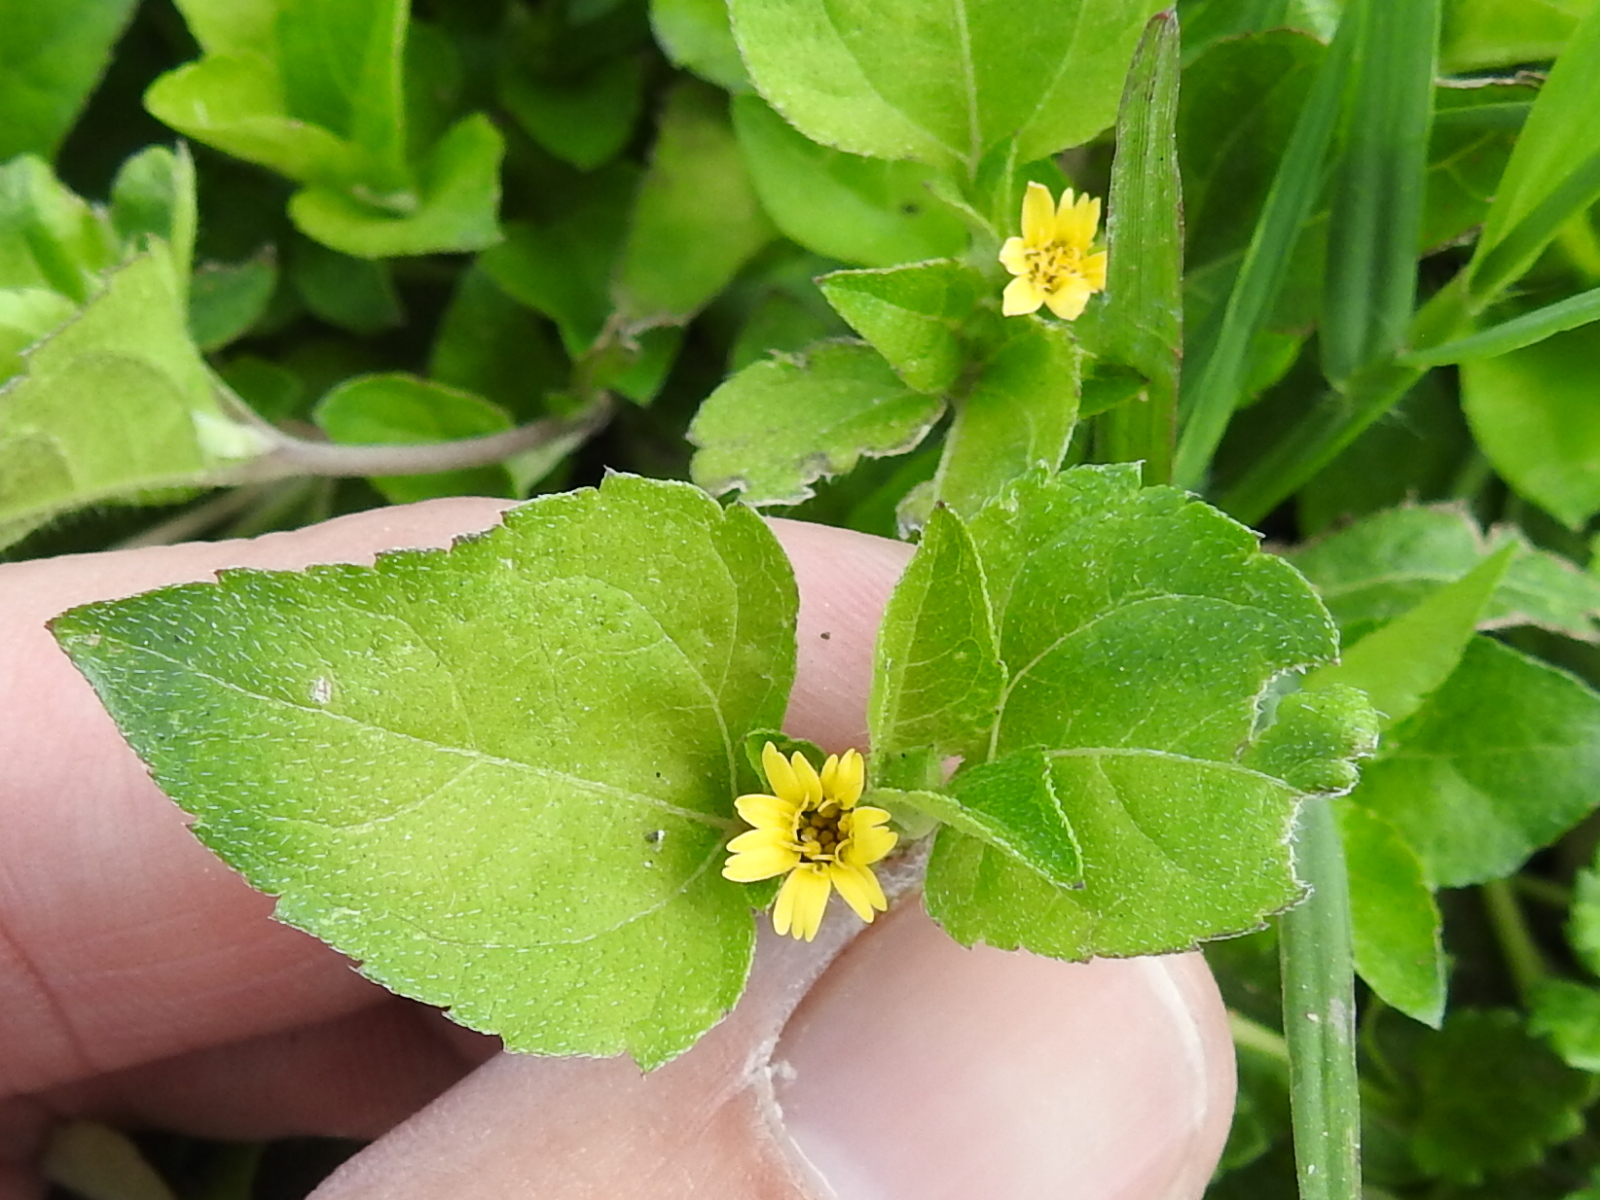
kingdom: Plantae
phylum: Tracheophyta
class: Magnoliopsida
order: Asterales
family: Asteraceae
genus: Calyptocarpus
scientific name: Calyptocarpus vialis
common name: Straggler daisy
